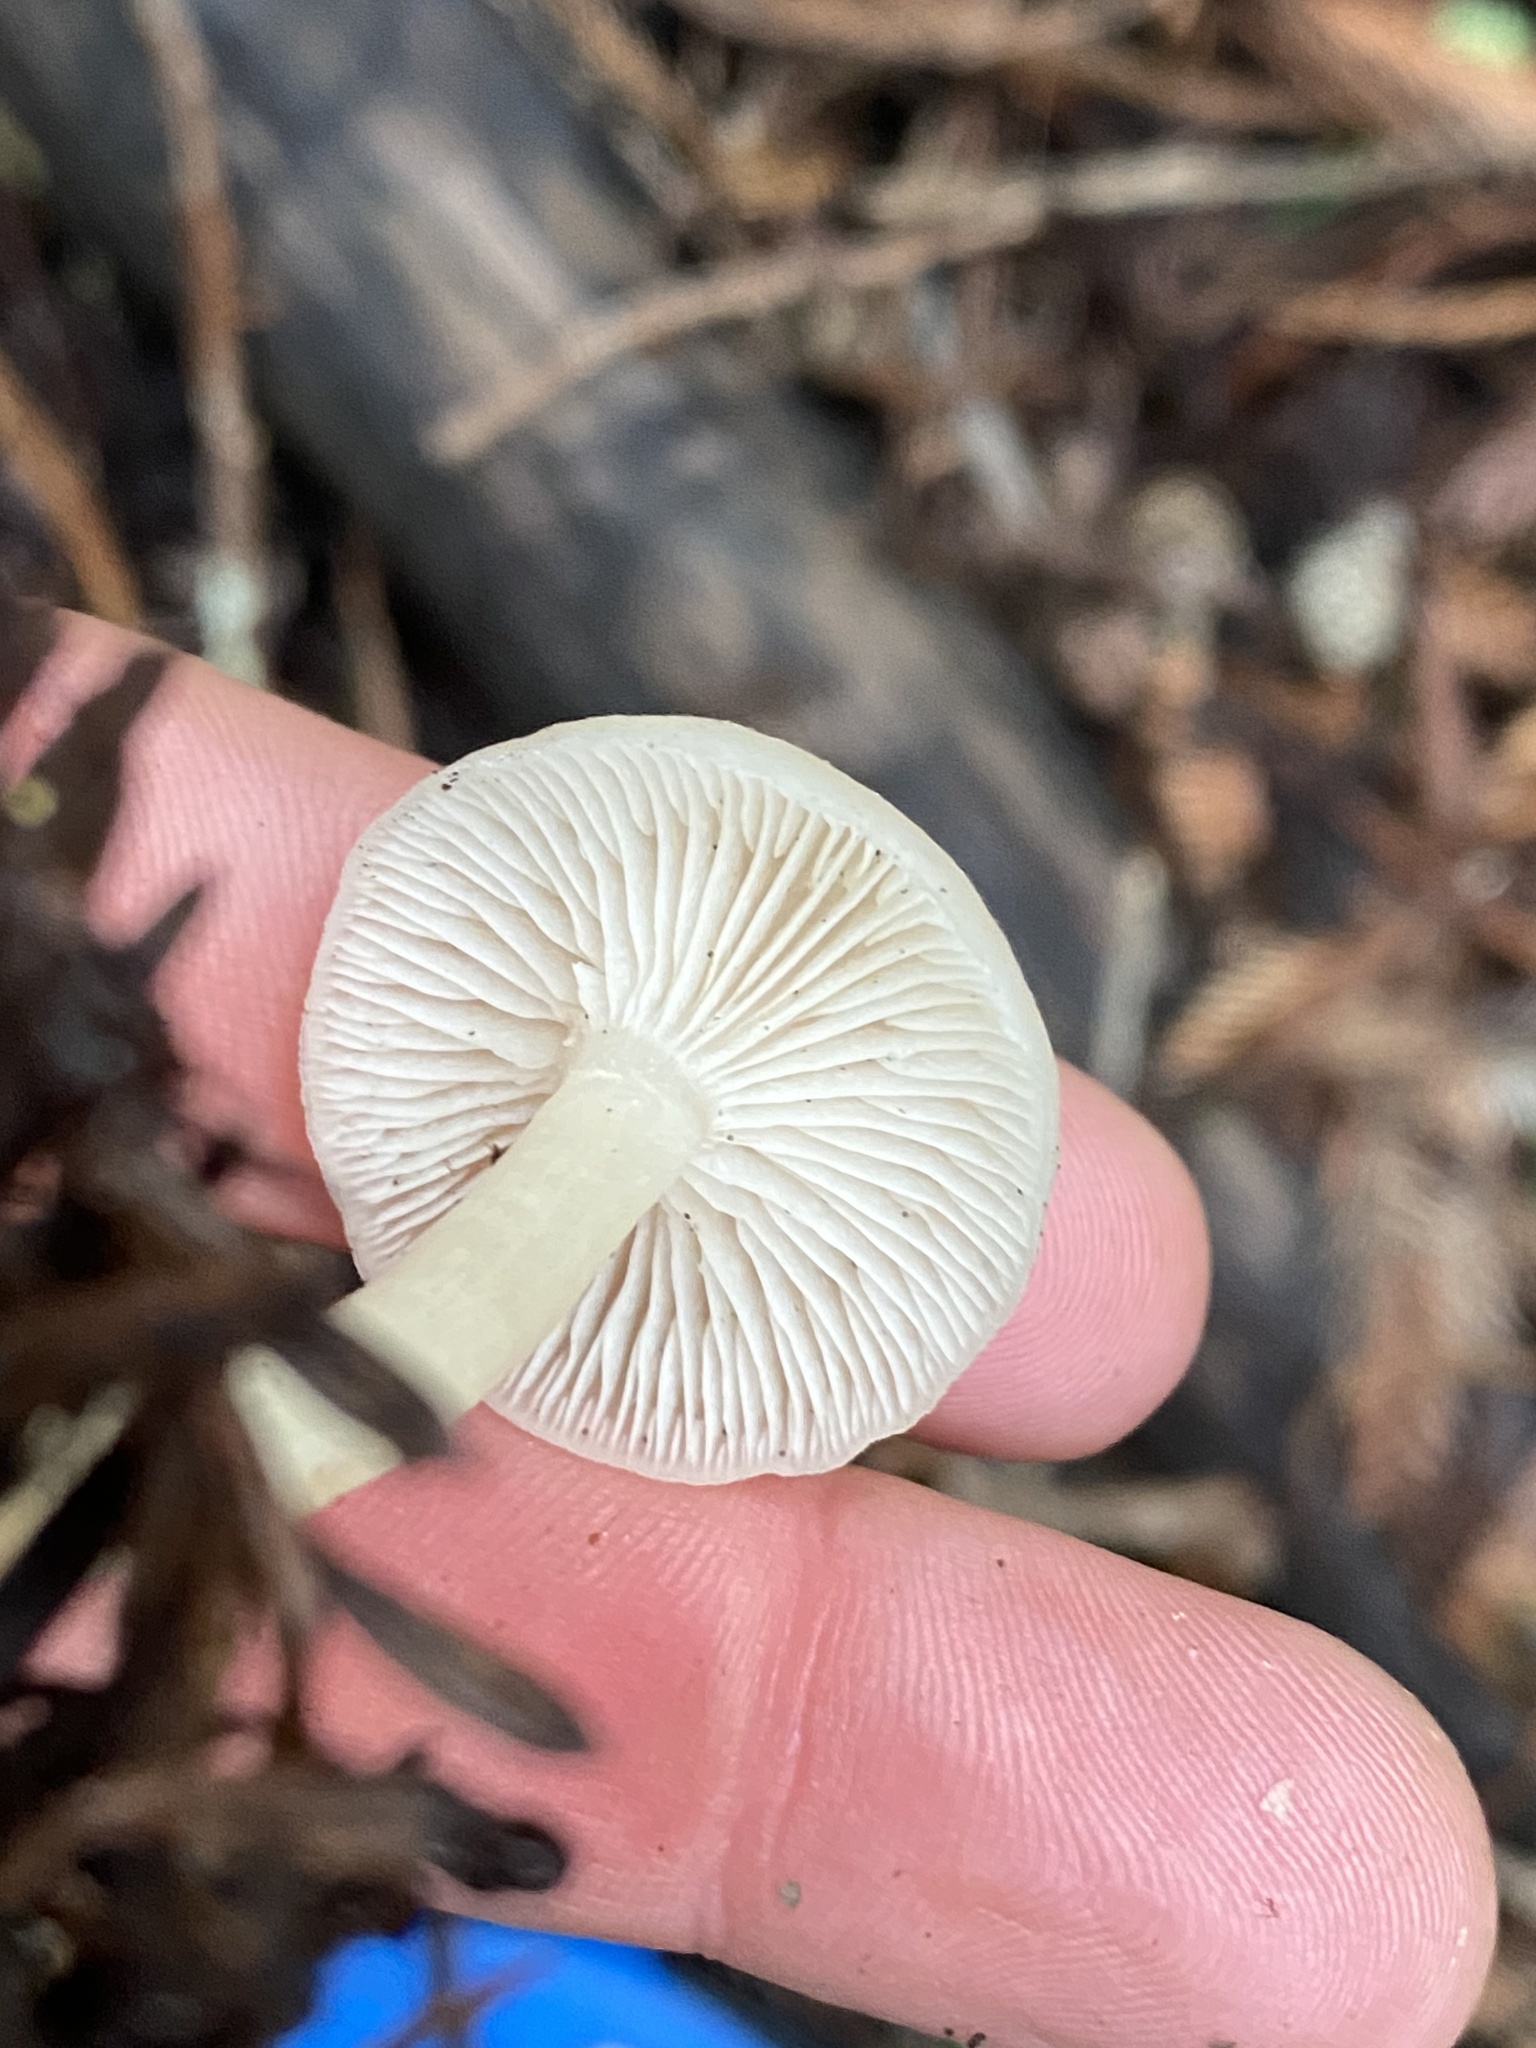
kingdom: Fungi
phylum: Basidiomycota
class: Agaricomycetes
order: Agaricales
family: Tricholomataceae
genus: Clitocybe
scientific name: Clitocybe fragrans
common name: Fragrant funnel
